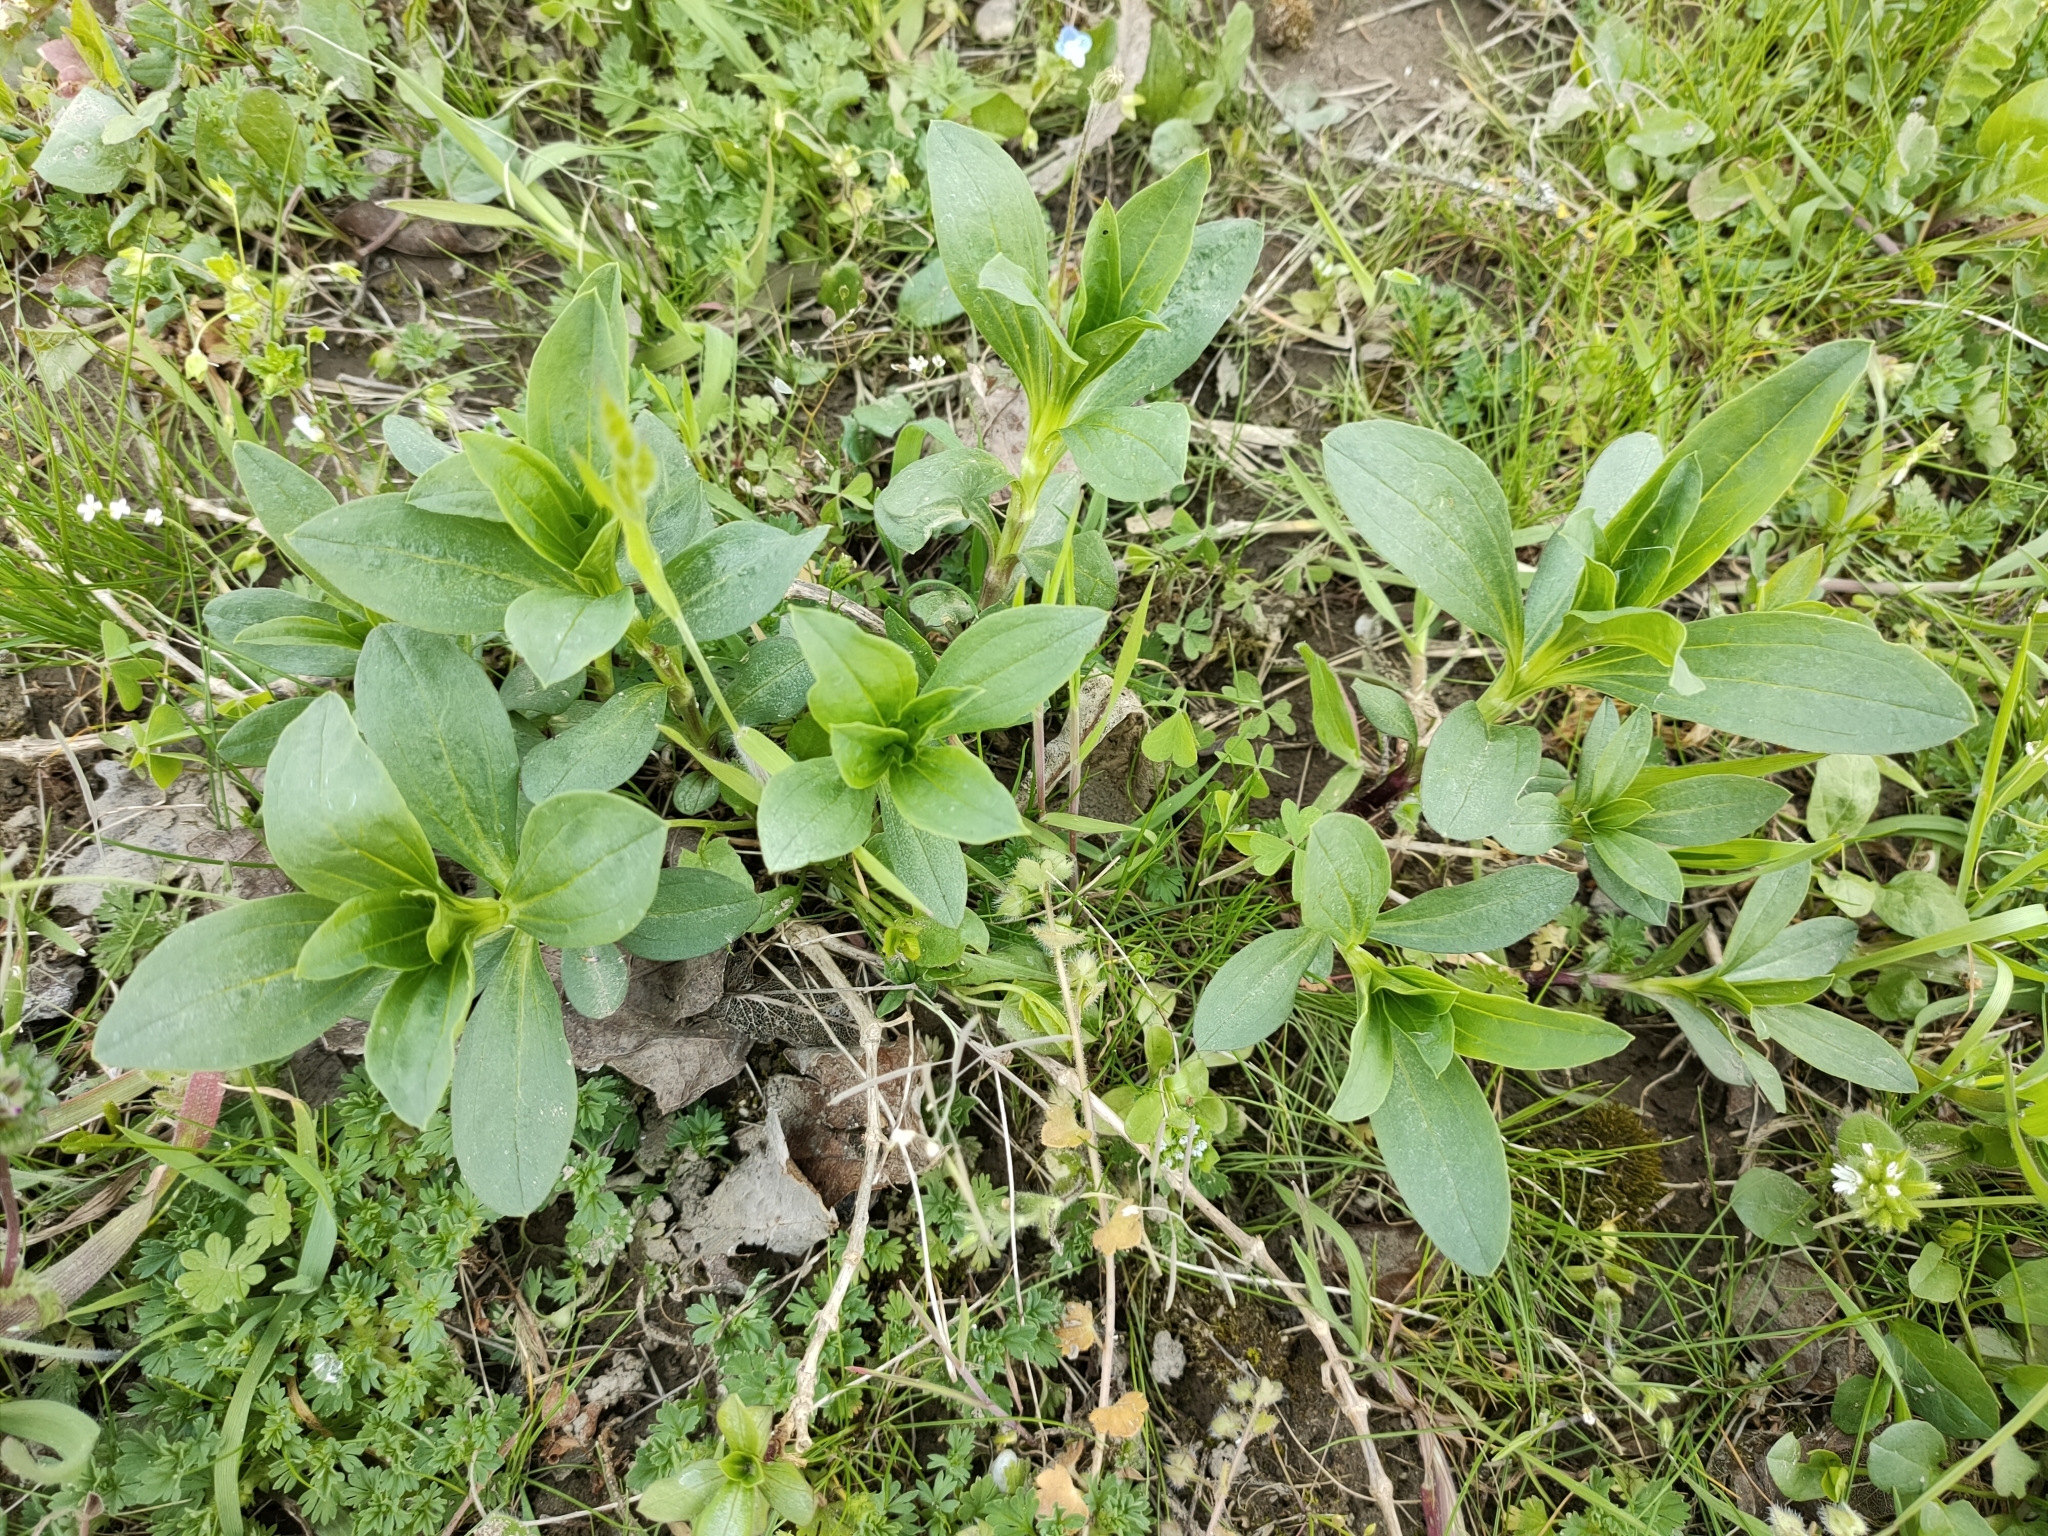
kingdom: Plantae
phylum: Tracheophyta
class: Magnoliopsida
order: Caryophyllales
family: Caryophyllaceae
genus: Saponaria
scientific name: Saponaria officinalis
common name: Soapwort
